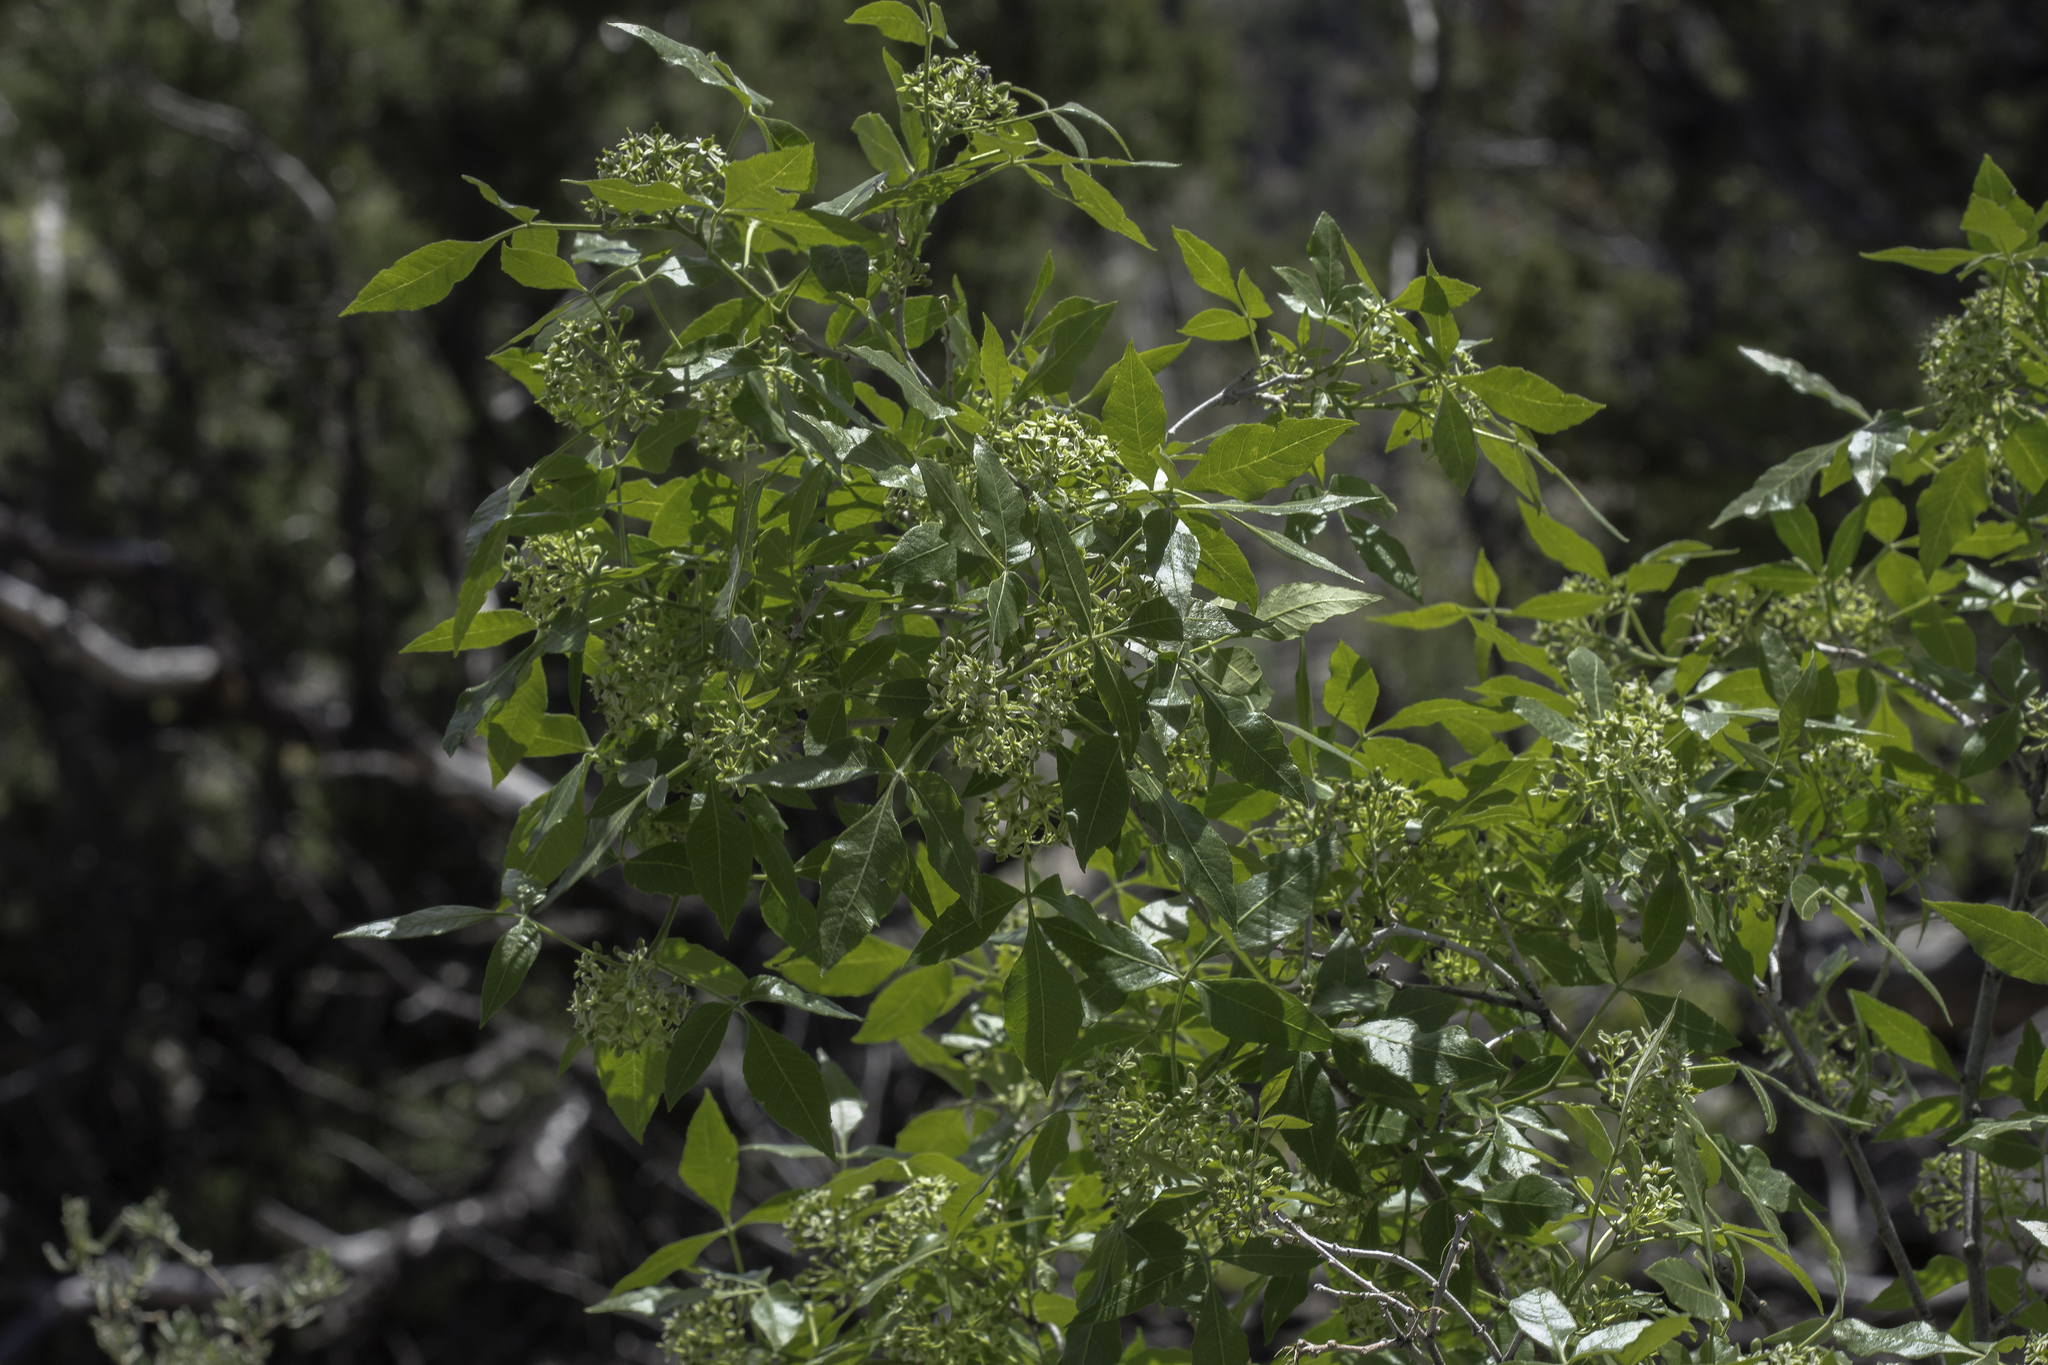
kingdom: Plantae
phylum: Tracheophyta
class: Magnoliopsida
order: Sapindales
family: Rutaceae
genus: Ptelea
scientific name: Ptelea trifoliata
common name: Common hop-tree
